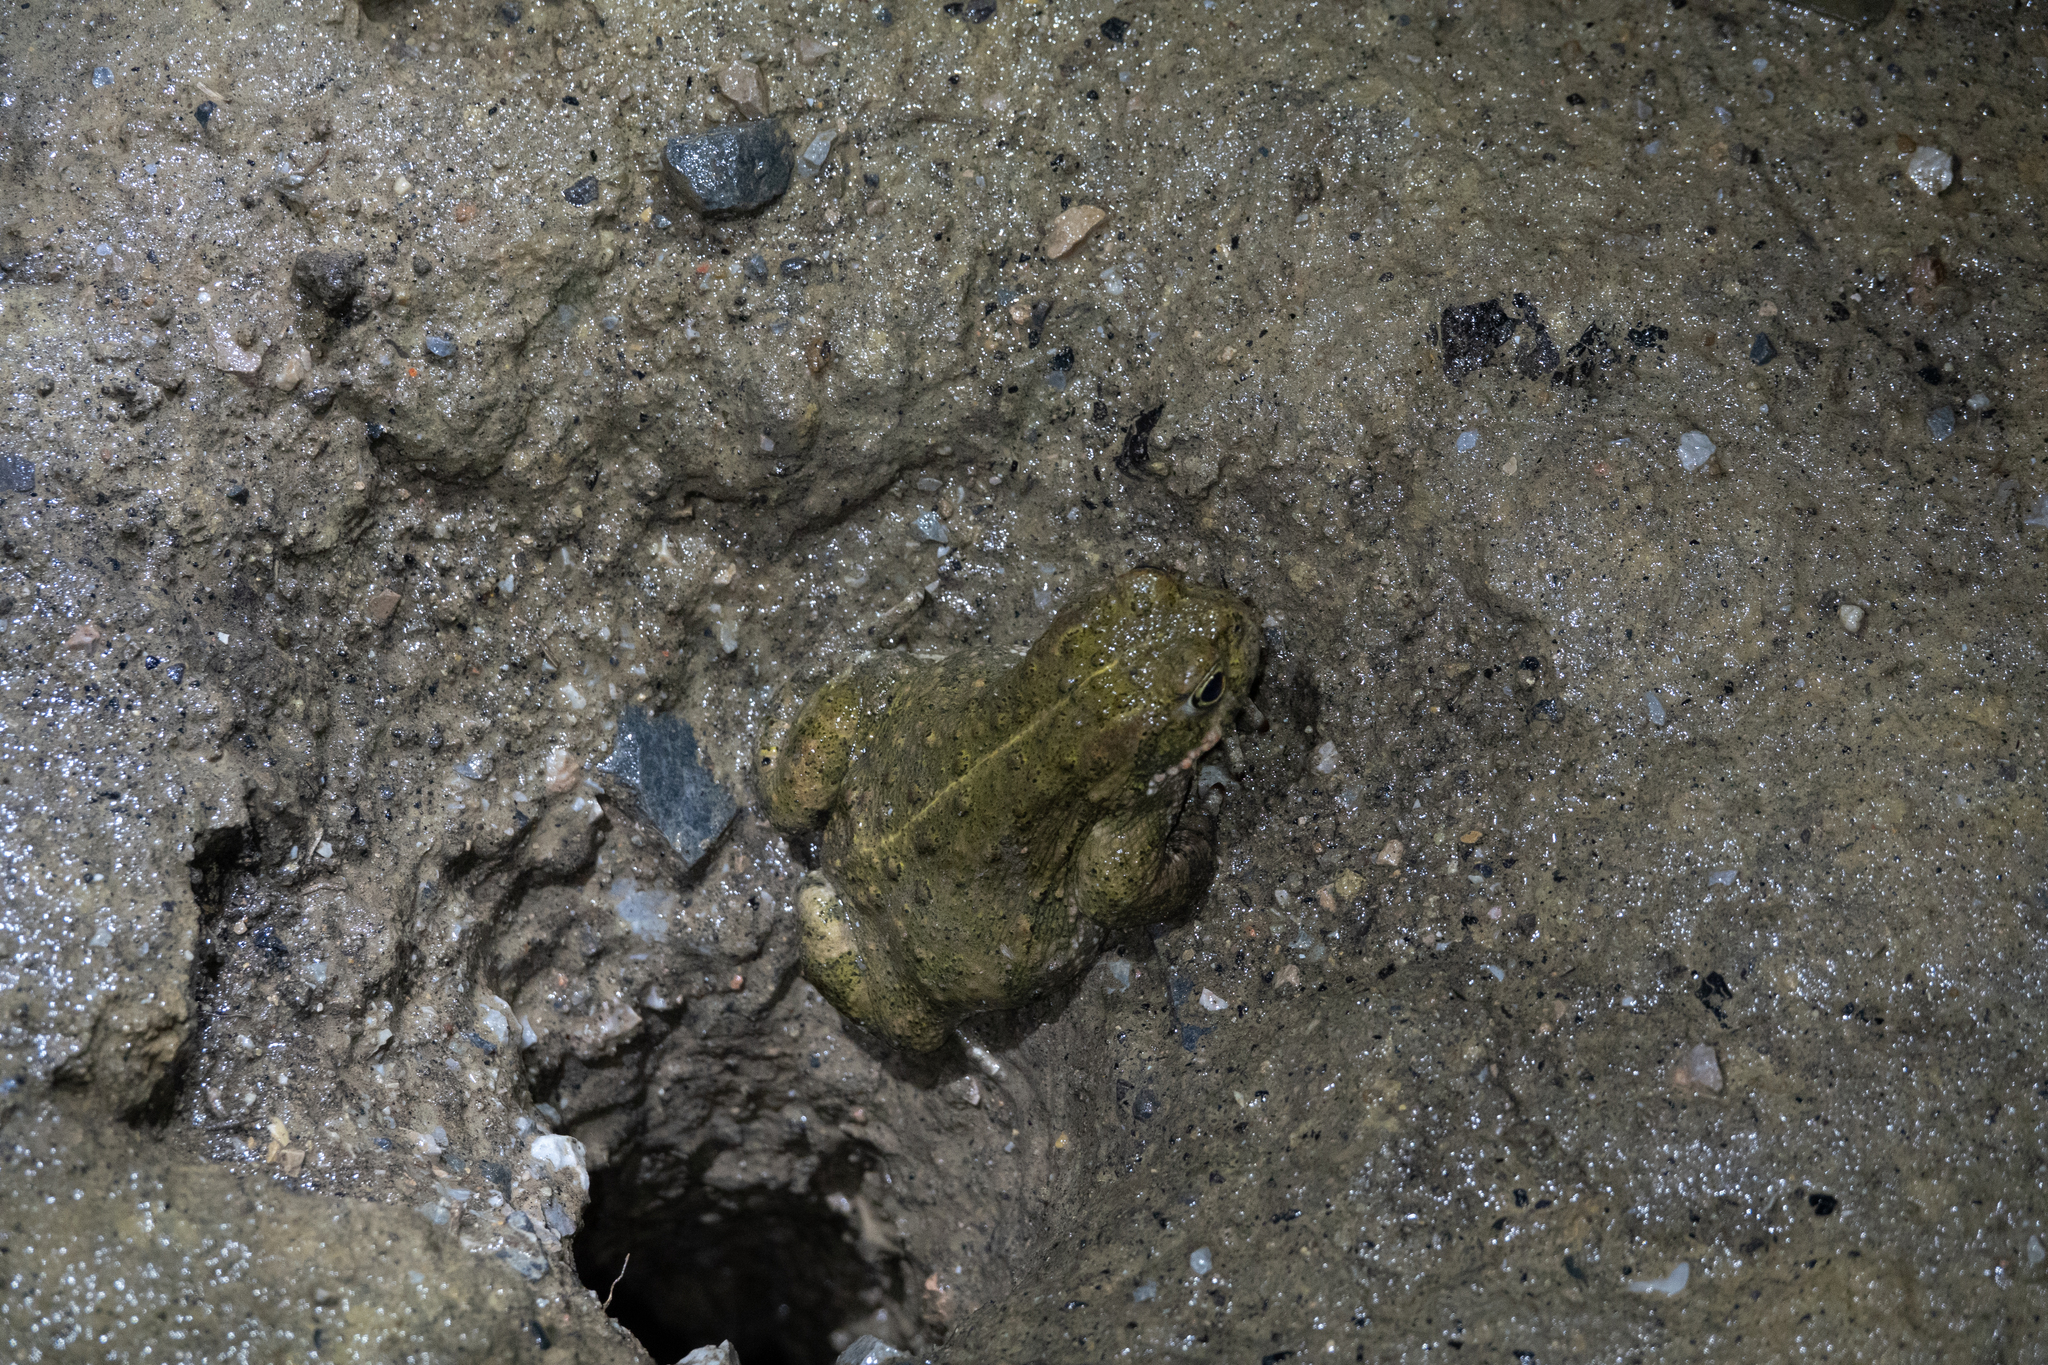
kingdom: Animalia
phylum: Chordata
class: Amphibia
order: Anura
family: Bufonidae
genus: Epidalea
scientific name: Epidalea calamita
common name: Natterjack toad
